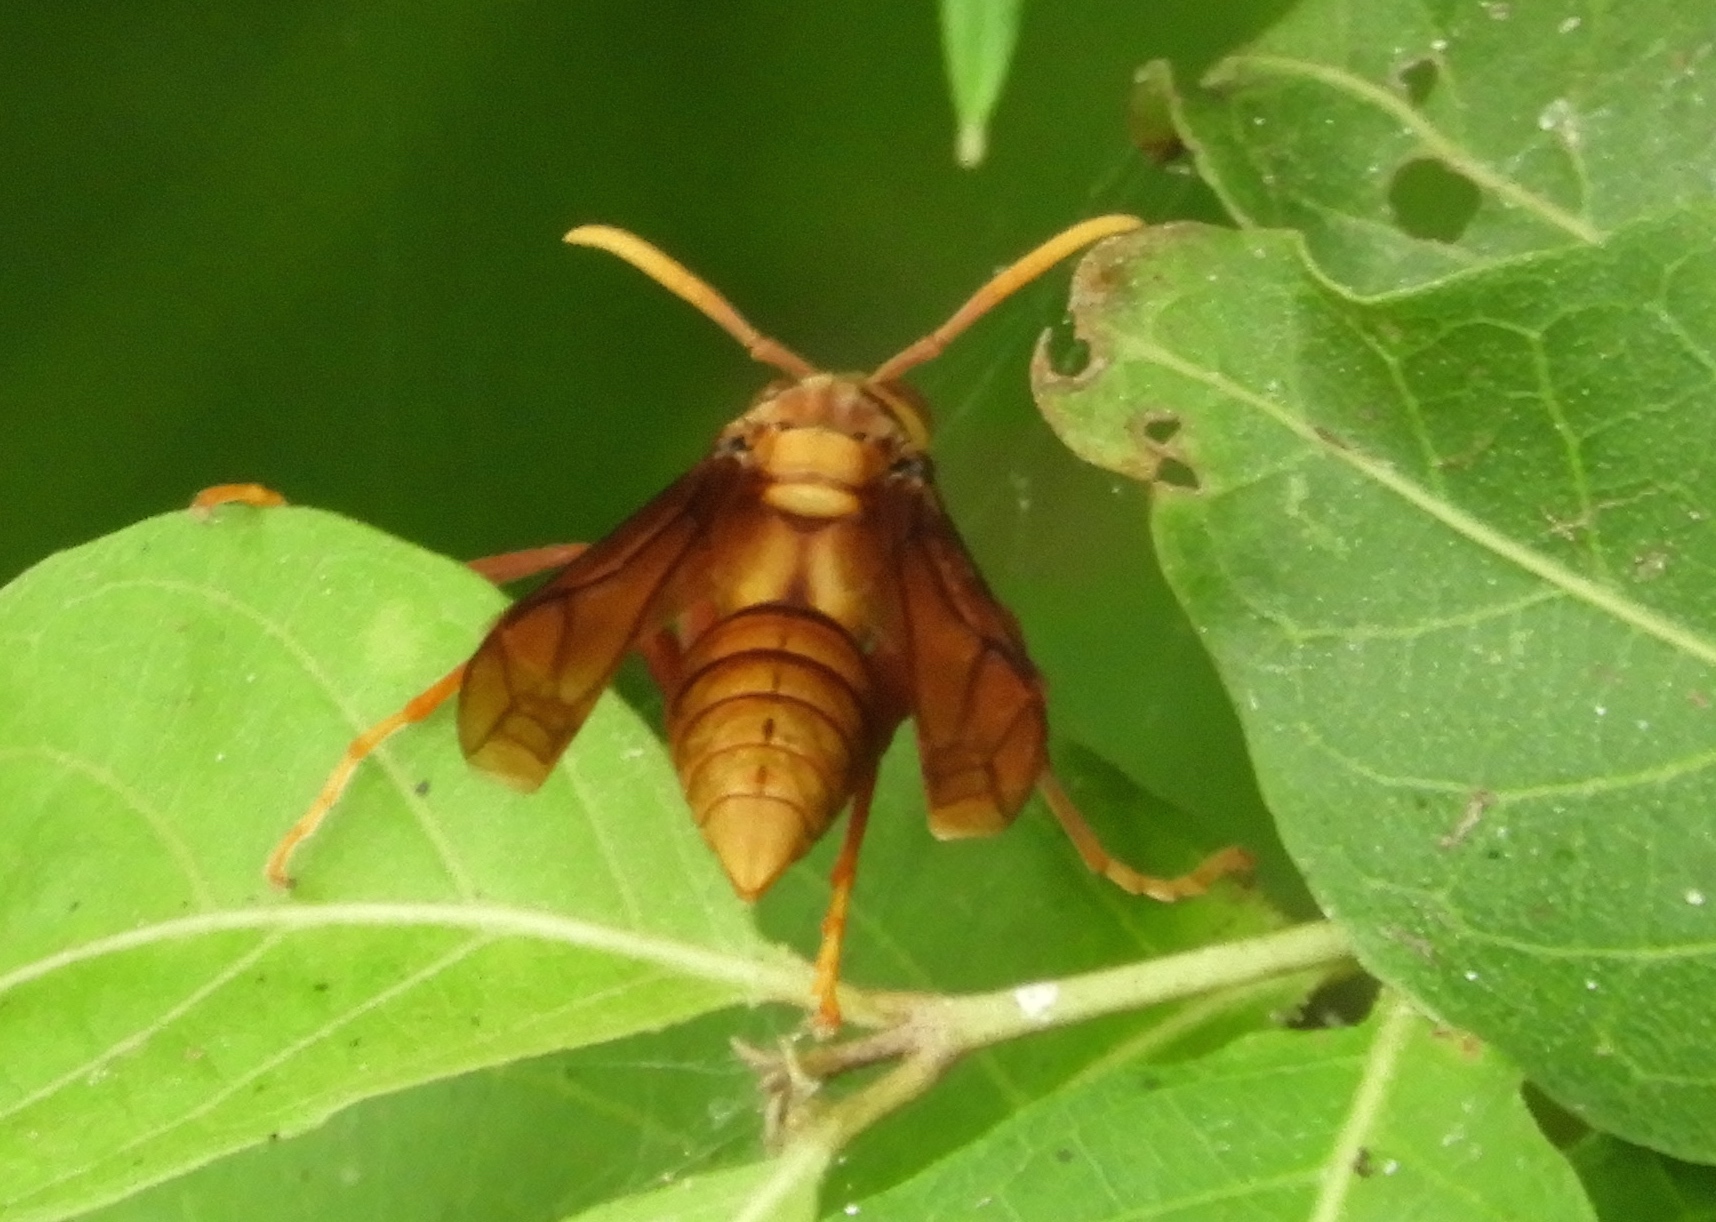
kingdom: Animalia
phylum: Arthropoda
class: Insecta
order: Hymenoptera
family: Eumenidae
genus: Polistes
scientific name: Polistes carnifex
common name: Paper wasp
